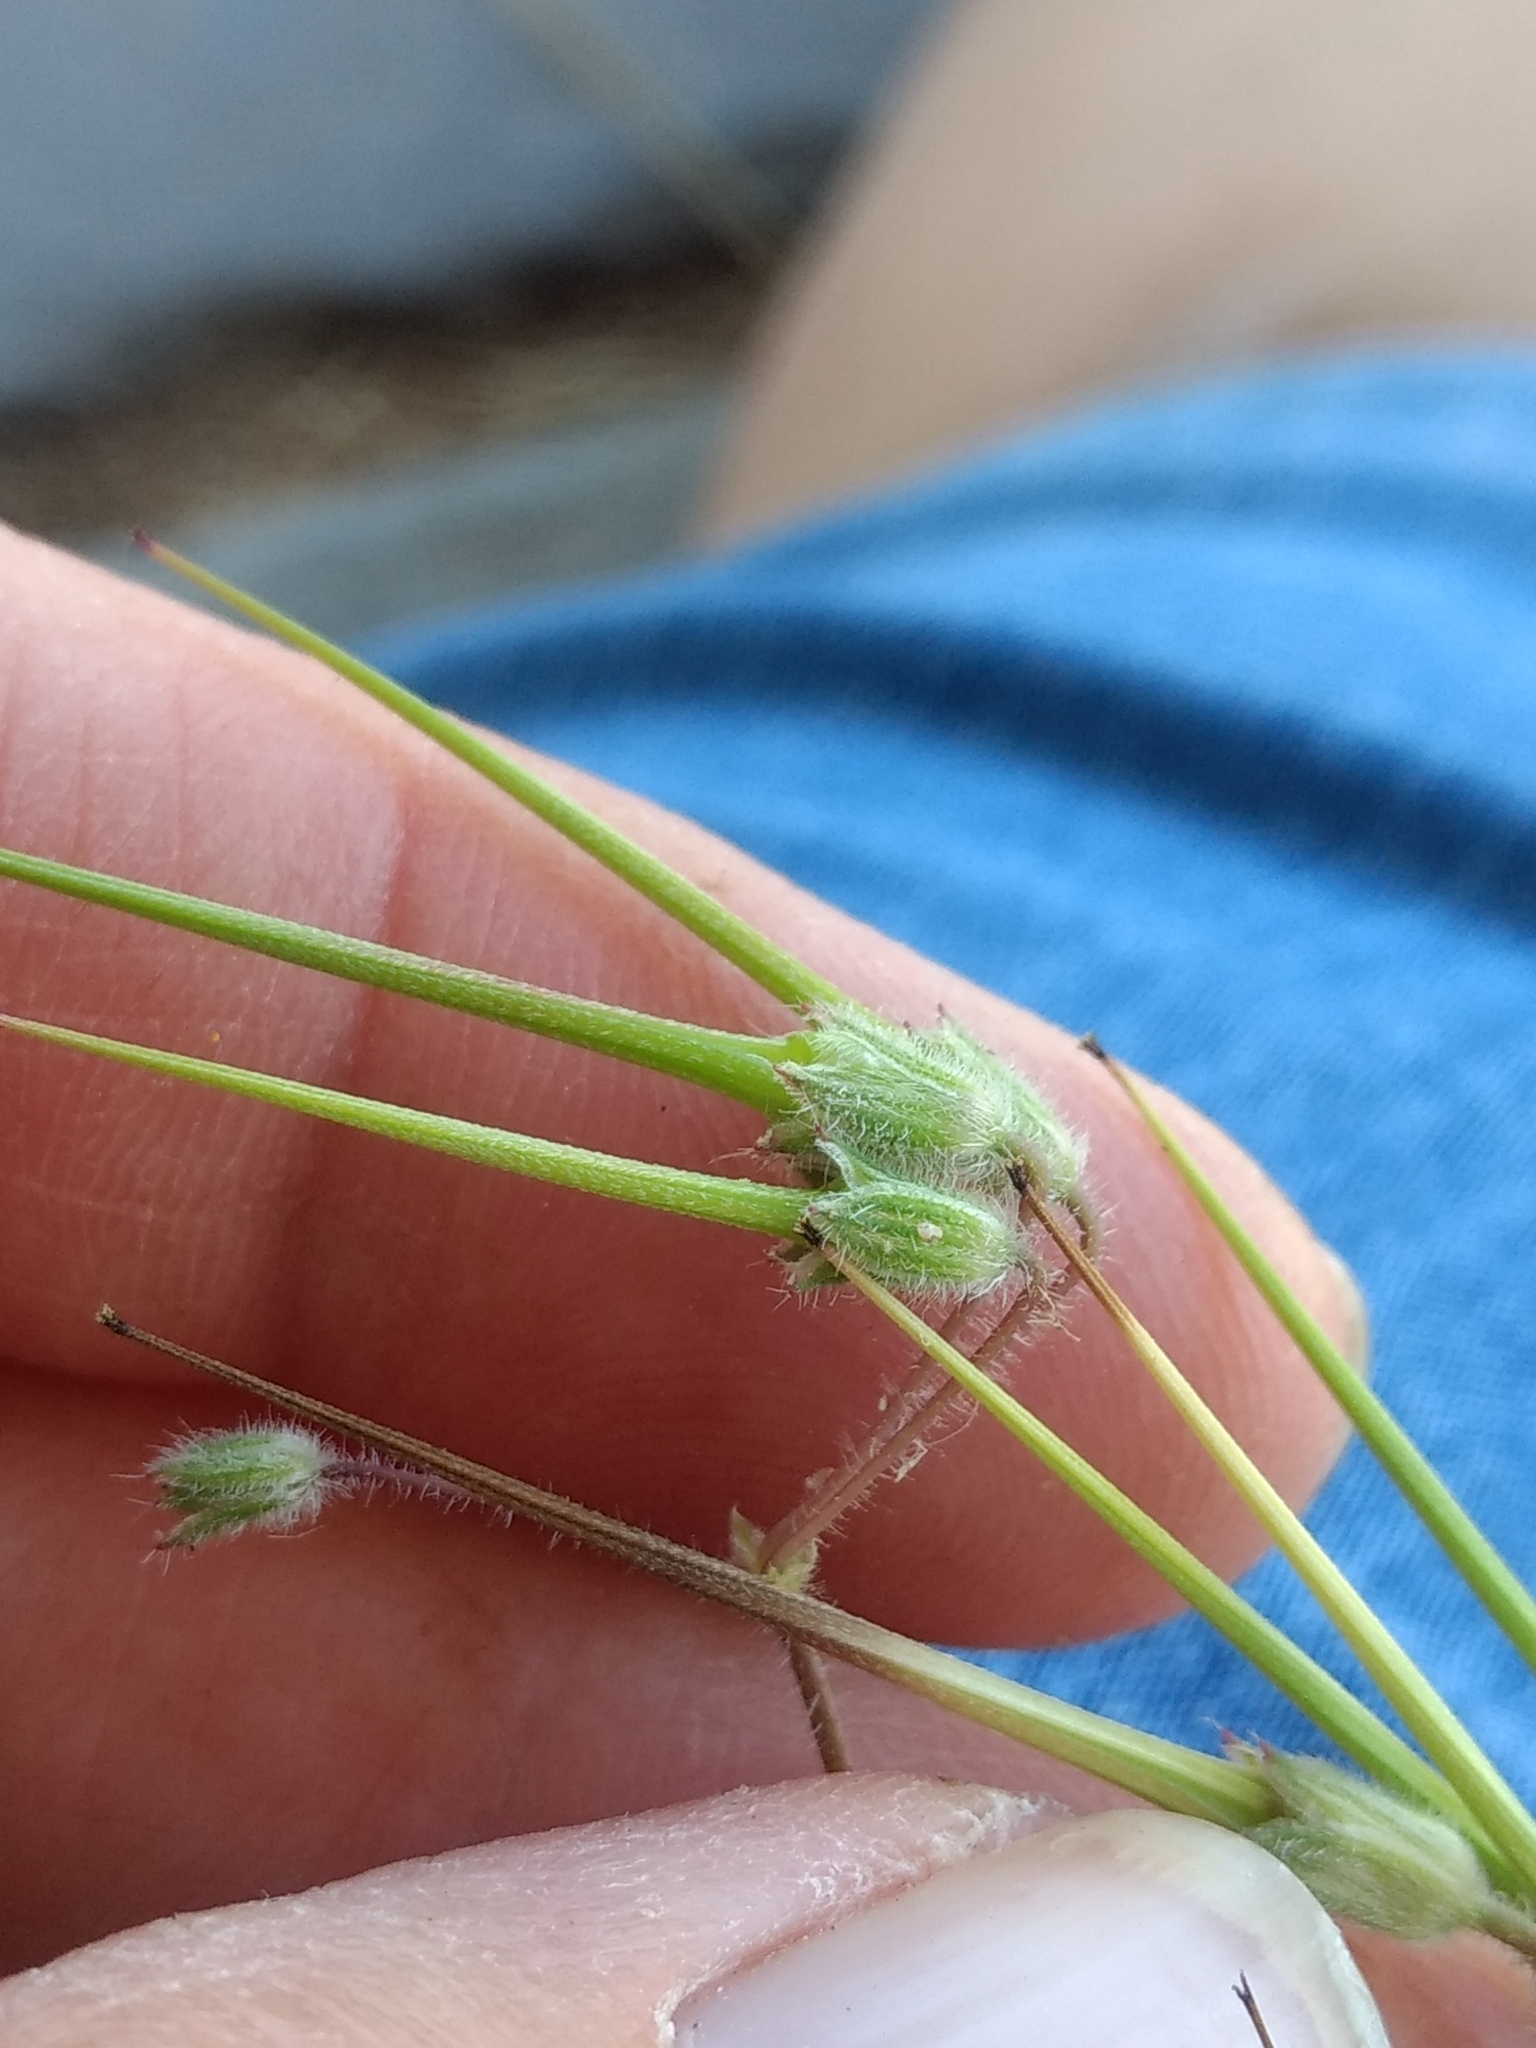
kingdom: Plantae
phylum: Tracheophyta
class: Magnoliopsida
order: Geraniales
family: Geraniaceae
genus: Erodium
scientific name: Erodium cicutarium
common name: Common stork's-bill
